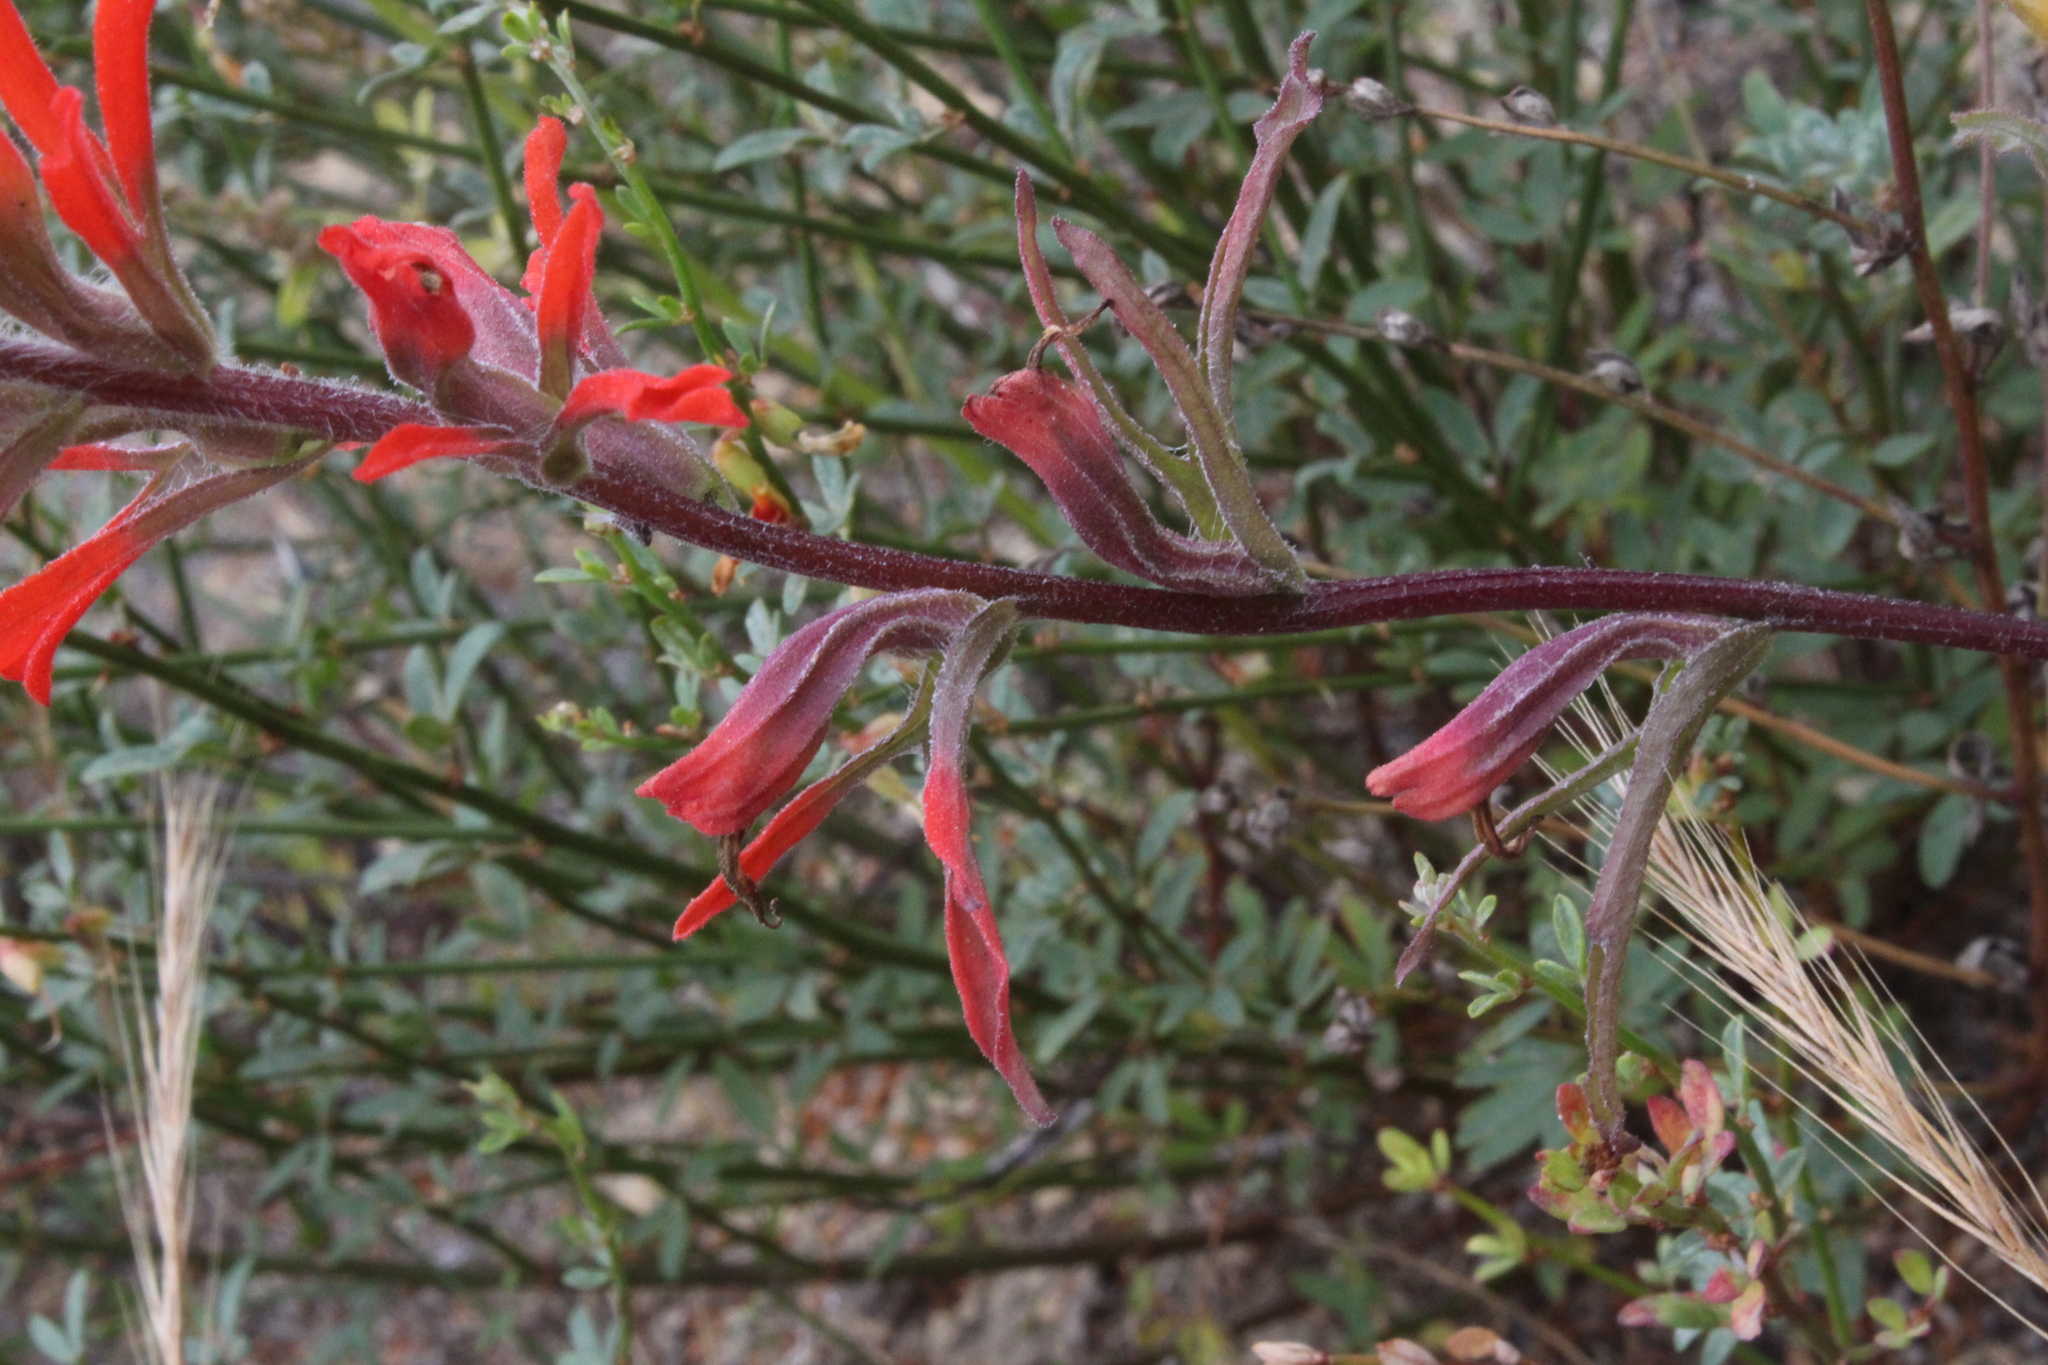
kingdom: Plantae
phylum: Tracheophyta
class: Magnoliopsida
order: Lamiales
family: Orobanchaceae
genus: Castilleja
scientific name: Castilleja affinis
